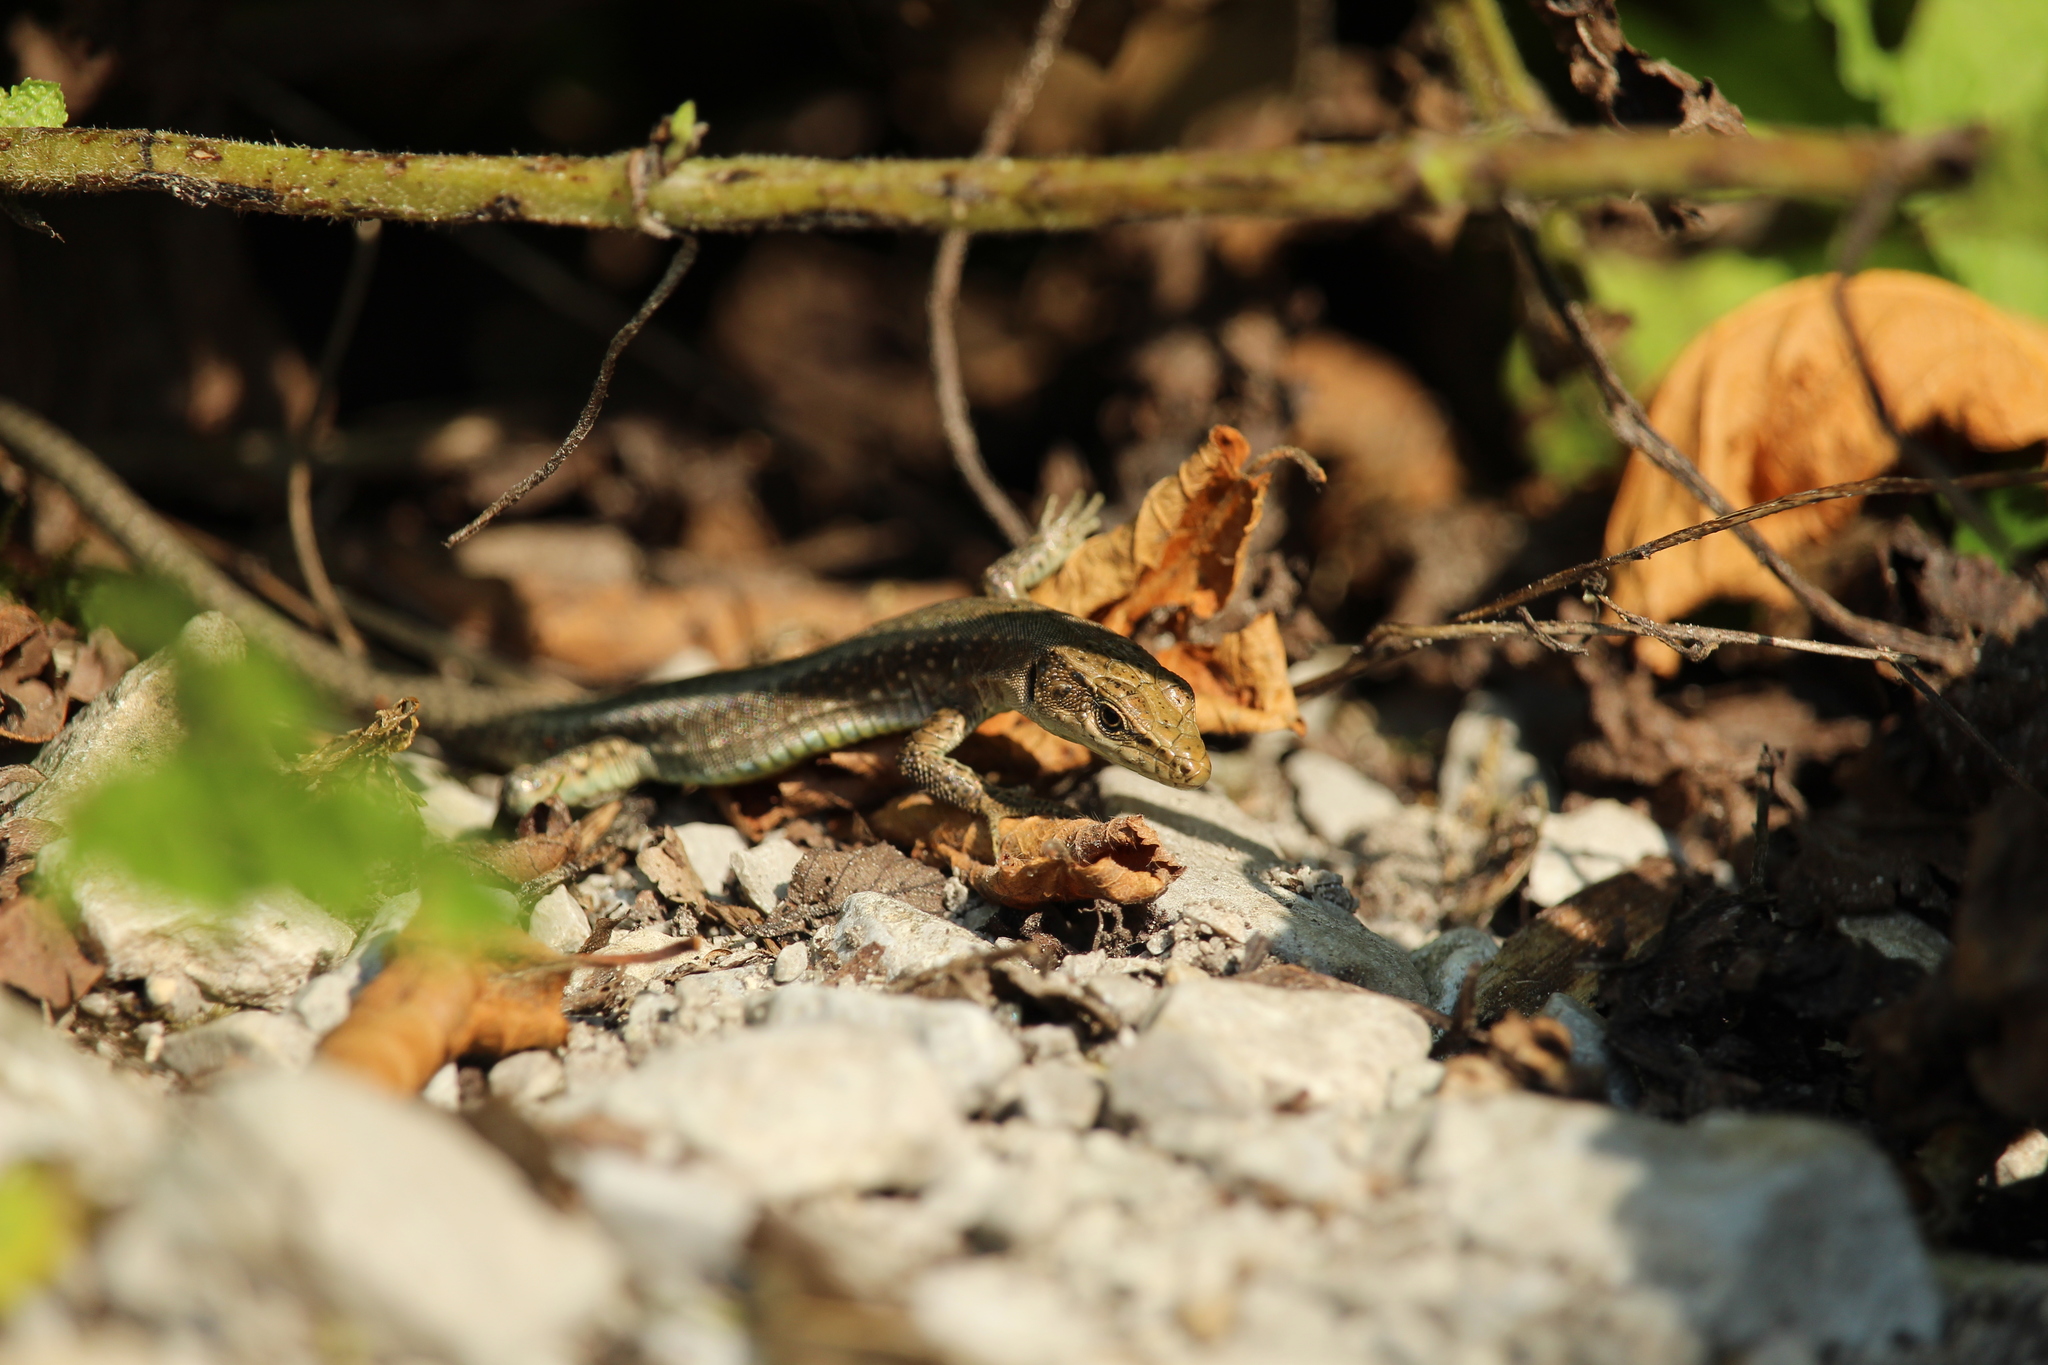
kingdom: Animalia
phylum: Chordata
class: Squamata
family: Lacertidae
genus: Darevskia
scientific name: Darevskia brauneri
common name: Brauner's rock lizard
